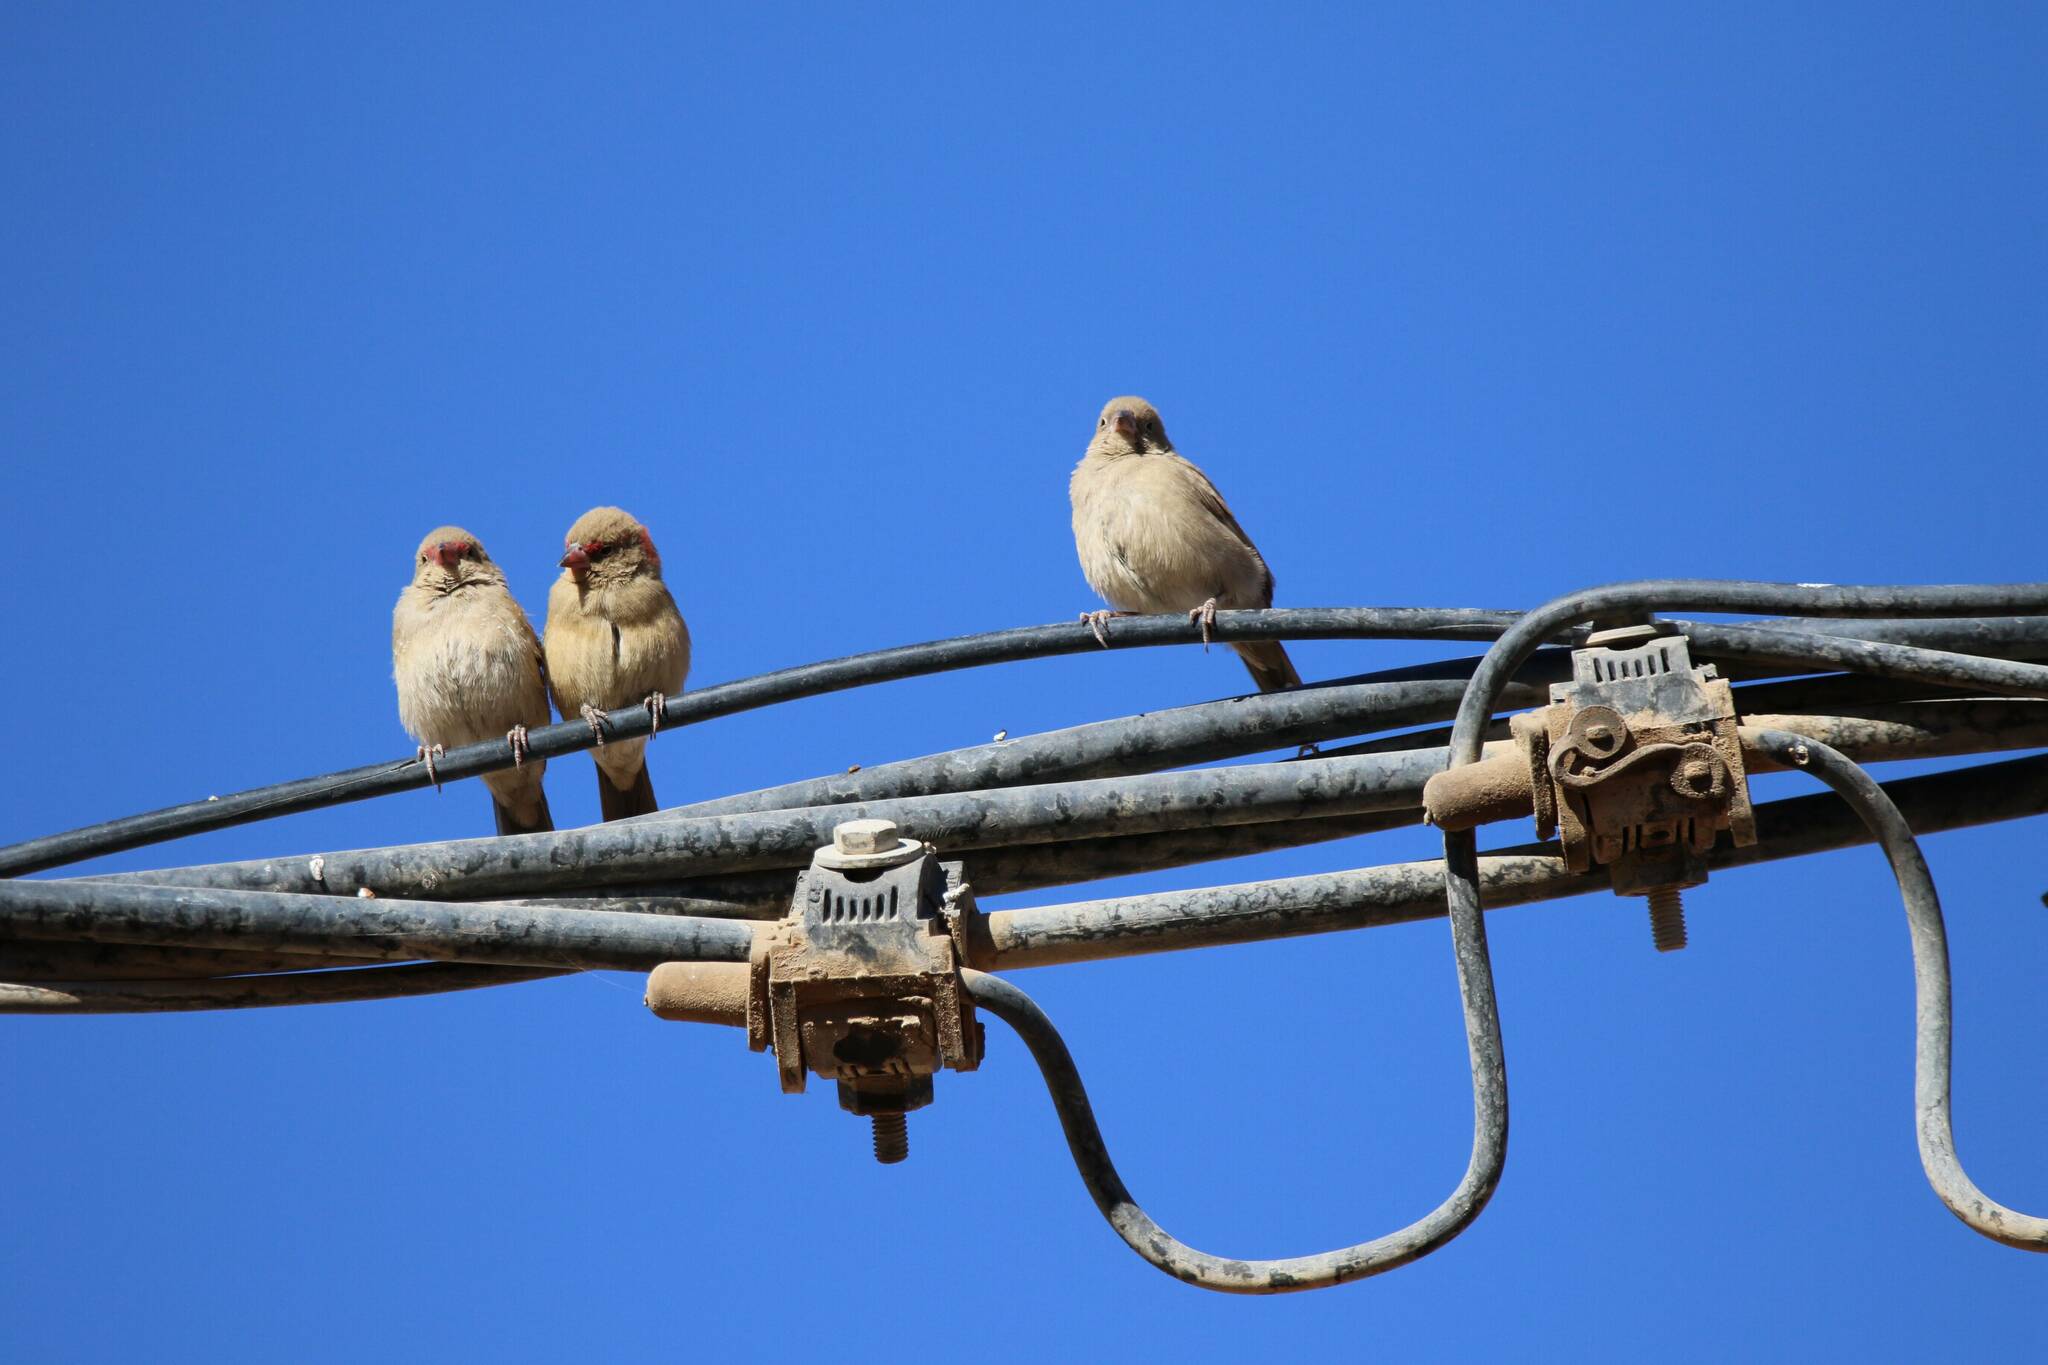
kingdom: Animalia
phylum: Chordata
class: Aves
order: Passeriformes
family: Estrildidae
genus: Lagonosticta
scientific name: Lagonosticta senegala
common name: Red-billed firefinch
